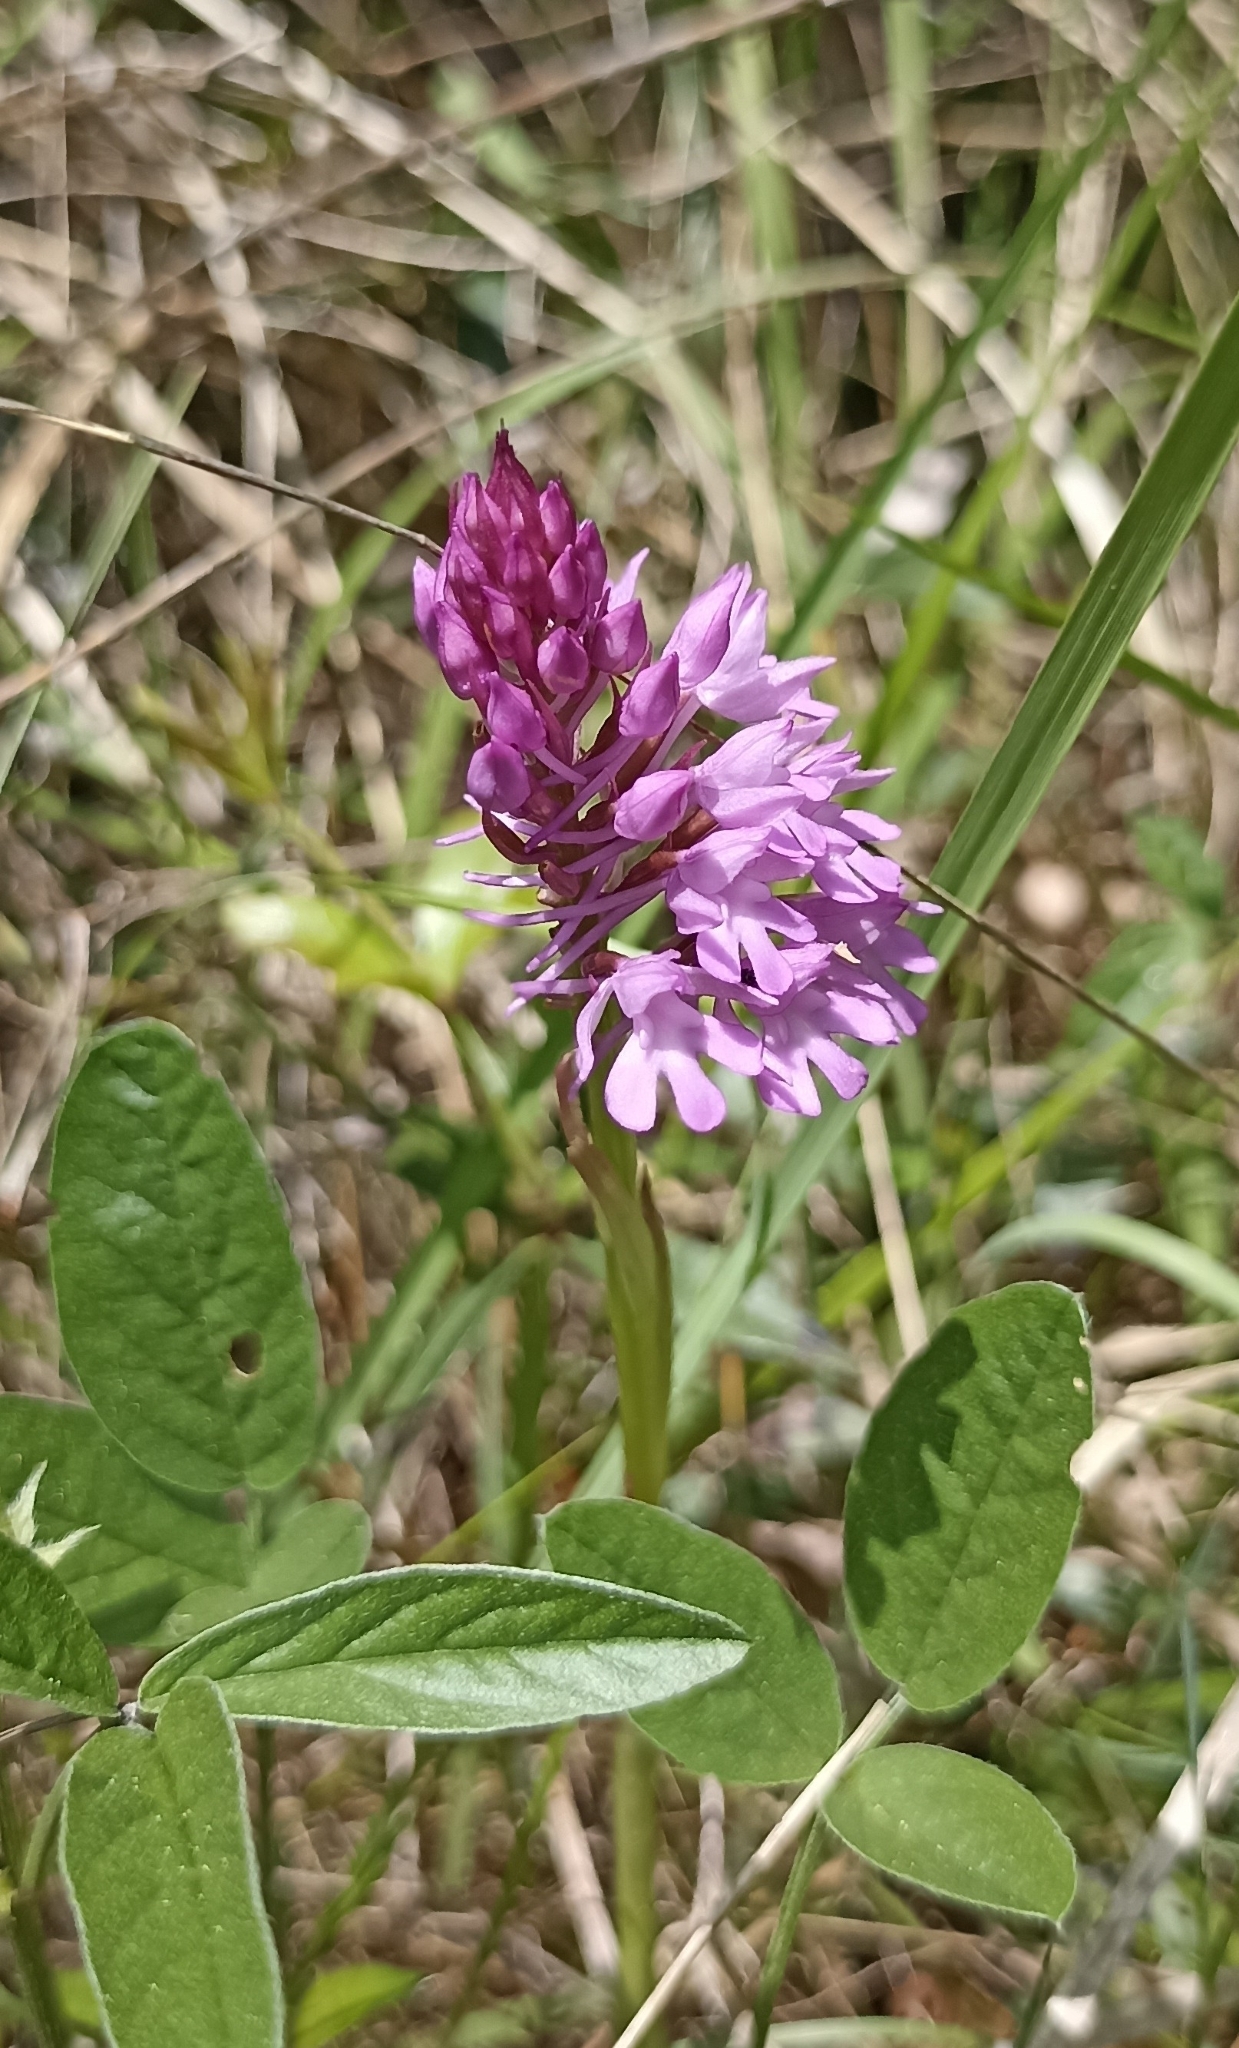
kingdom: Plantae
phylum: Tracheophyta
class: Liliopsida
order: Asparagales
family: Orchidaceae
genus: Anacamptis
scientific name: Anacamptis pyramidalis
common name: Pyramidal orchid
